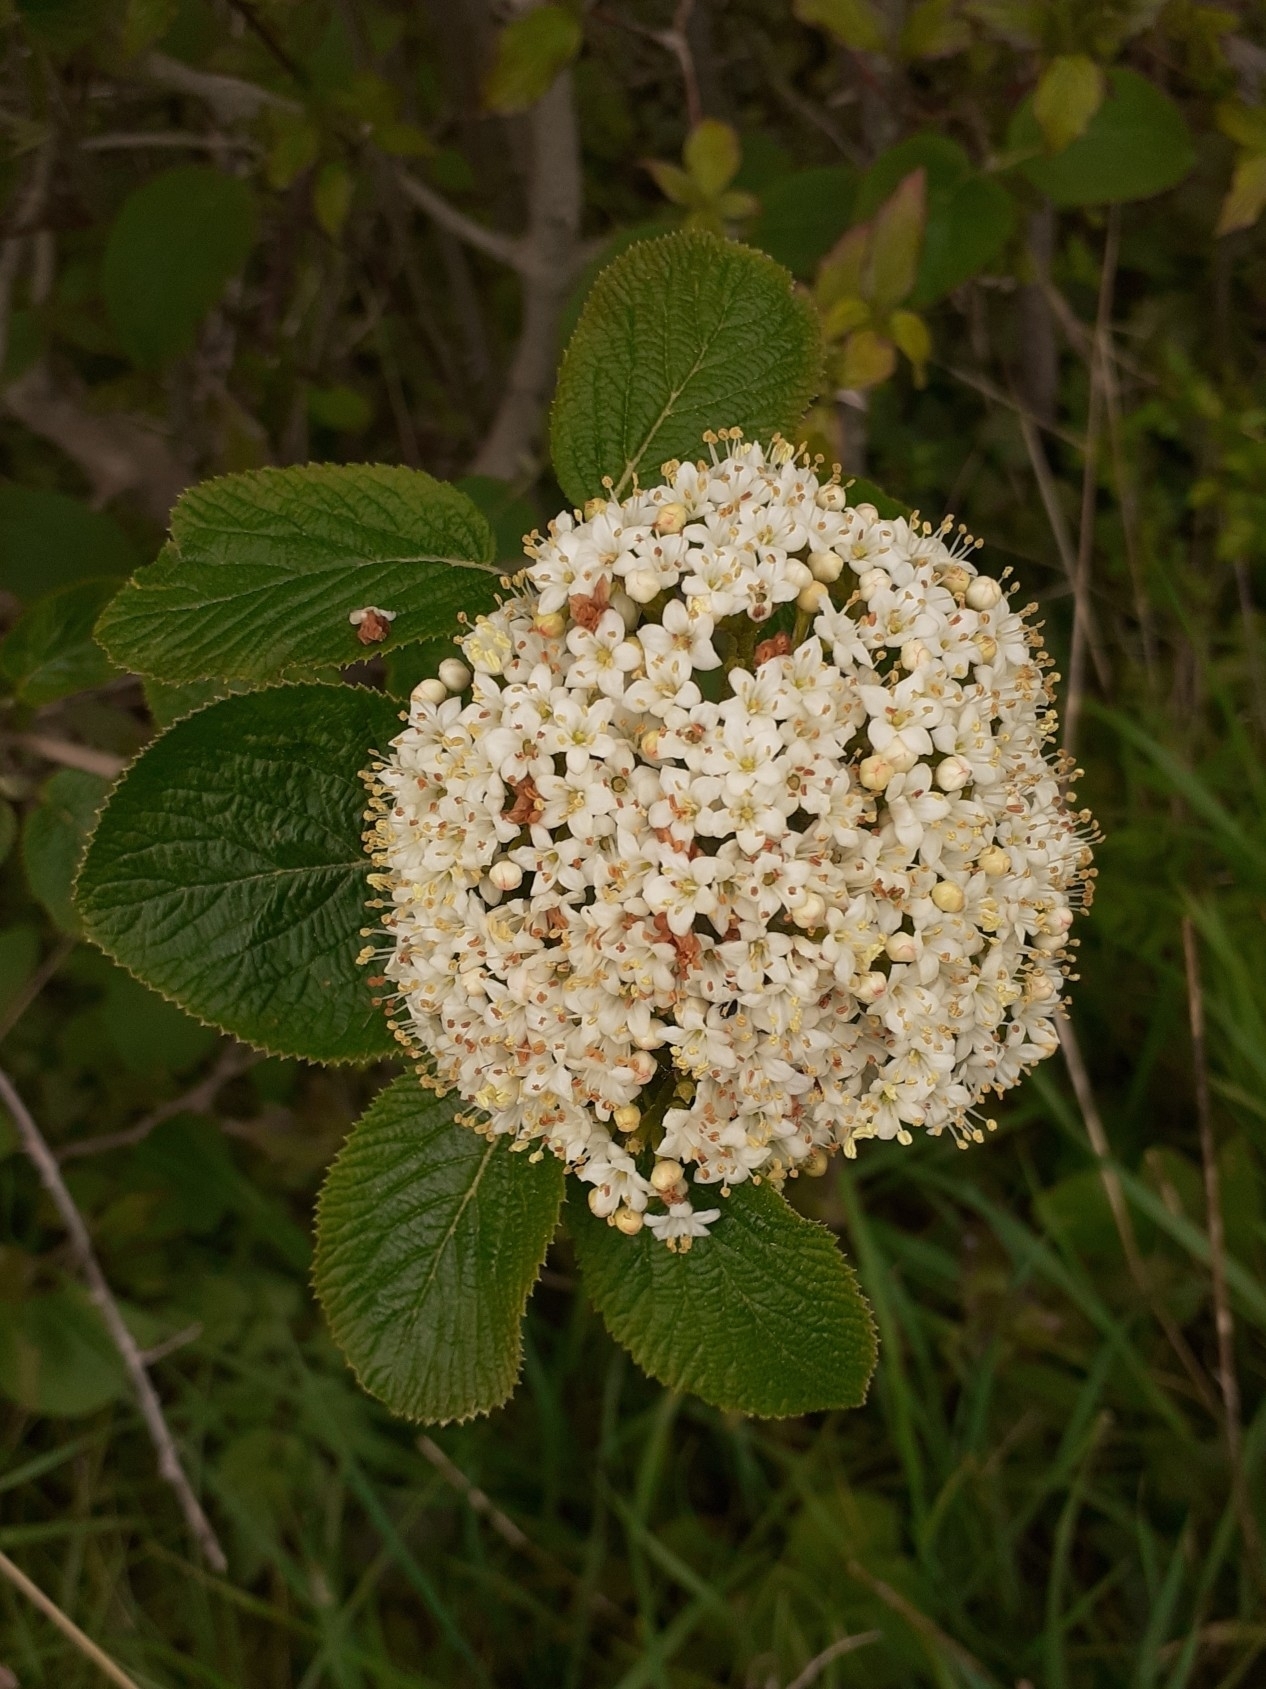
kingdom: Plantae
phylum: Tracheophyta
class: Magnoliopsida
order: Dipsacales
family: Viburnaceae
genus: Viburnum
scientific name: Viburnum lantana
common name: Wayfaring tree
